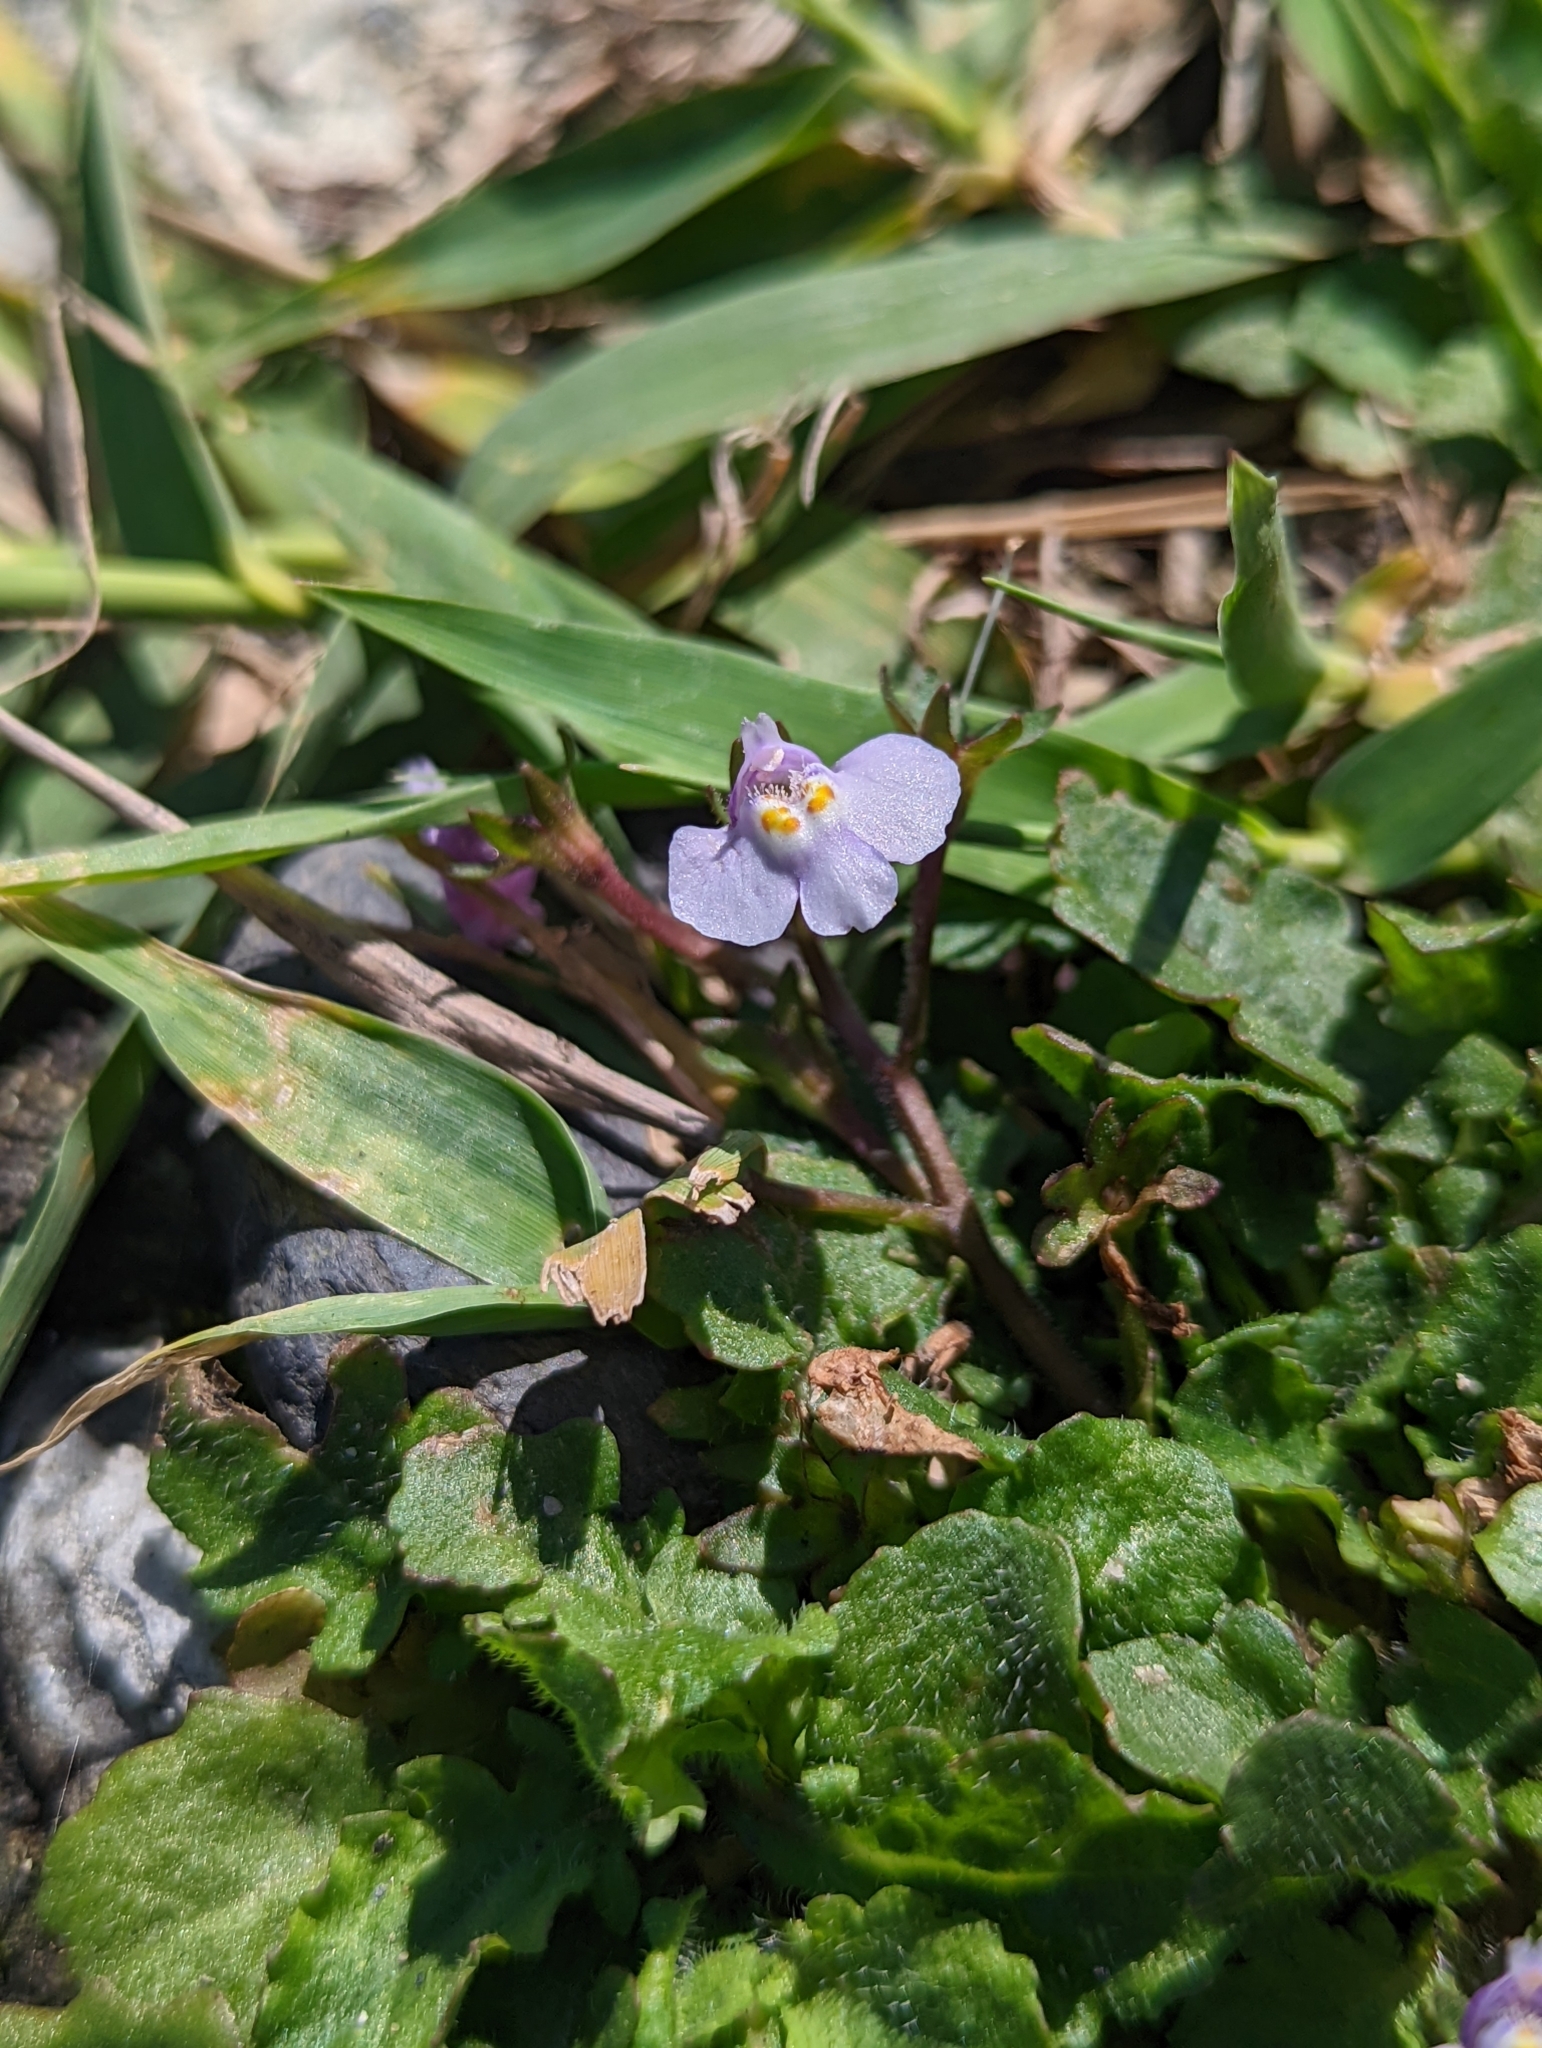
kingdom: Plantae
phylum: Tracheophyta
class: Magnoliopsida
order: Lamiales
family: Mazaceae
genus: Mazus
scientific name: Mazus pumilus
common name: Japanese mazus
